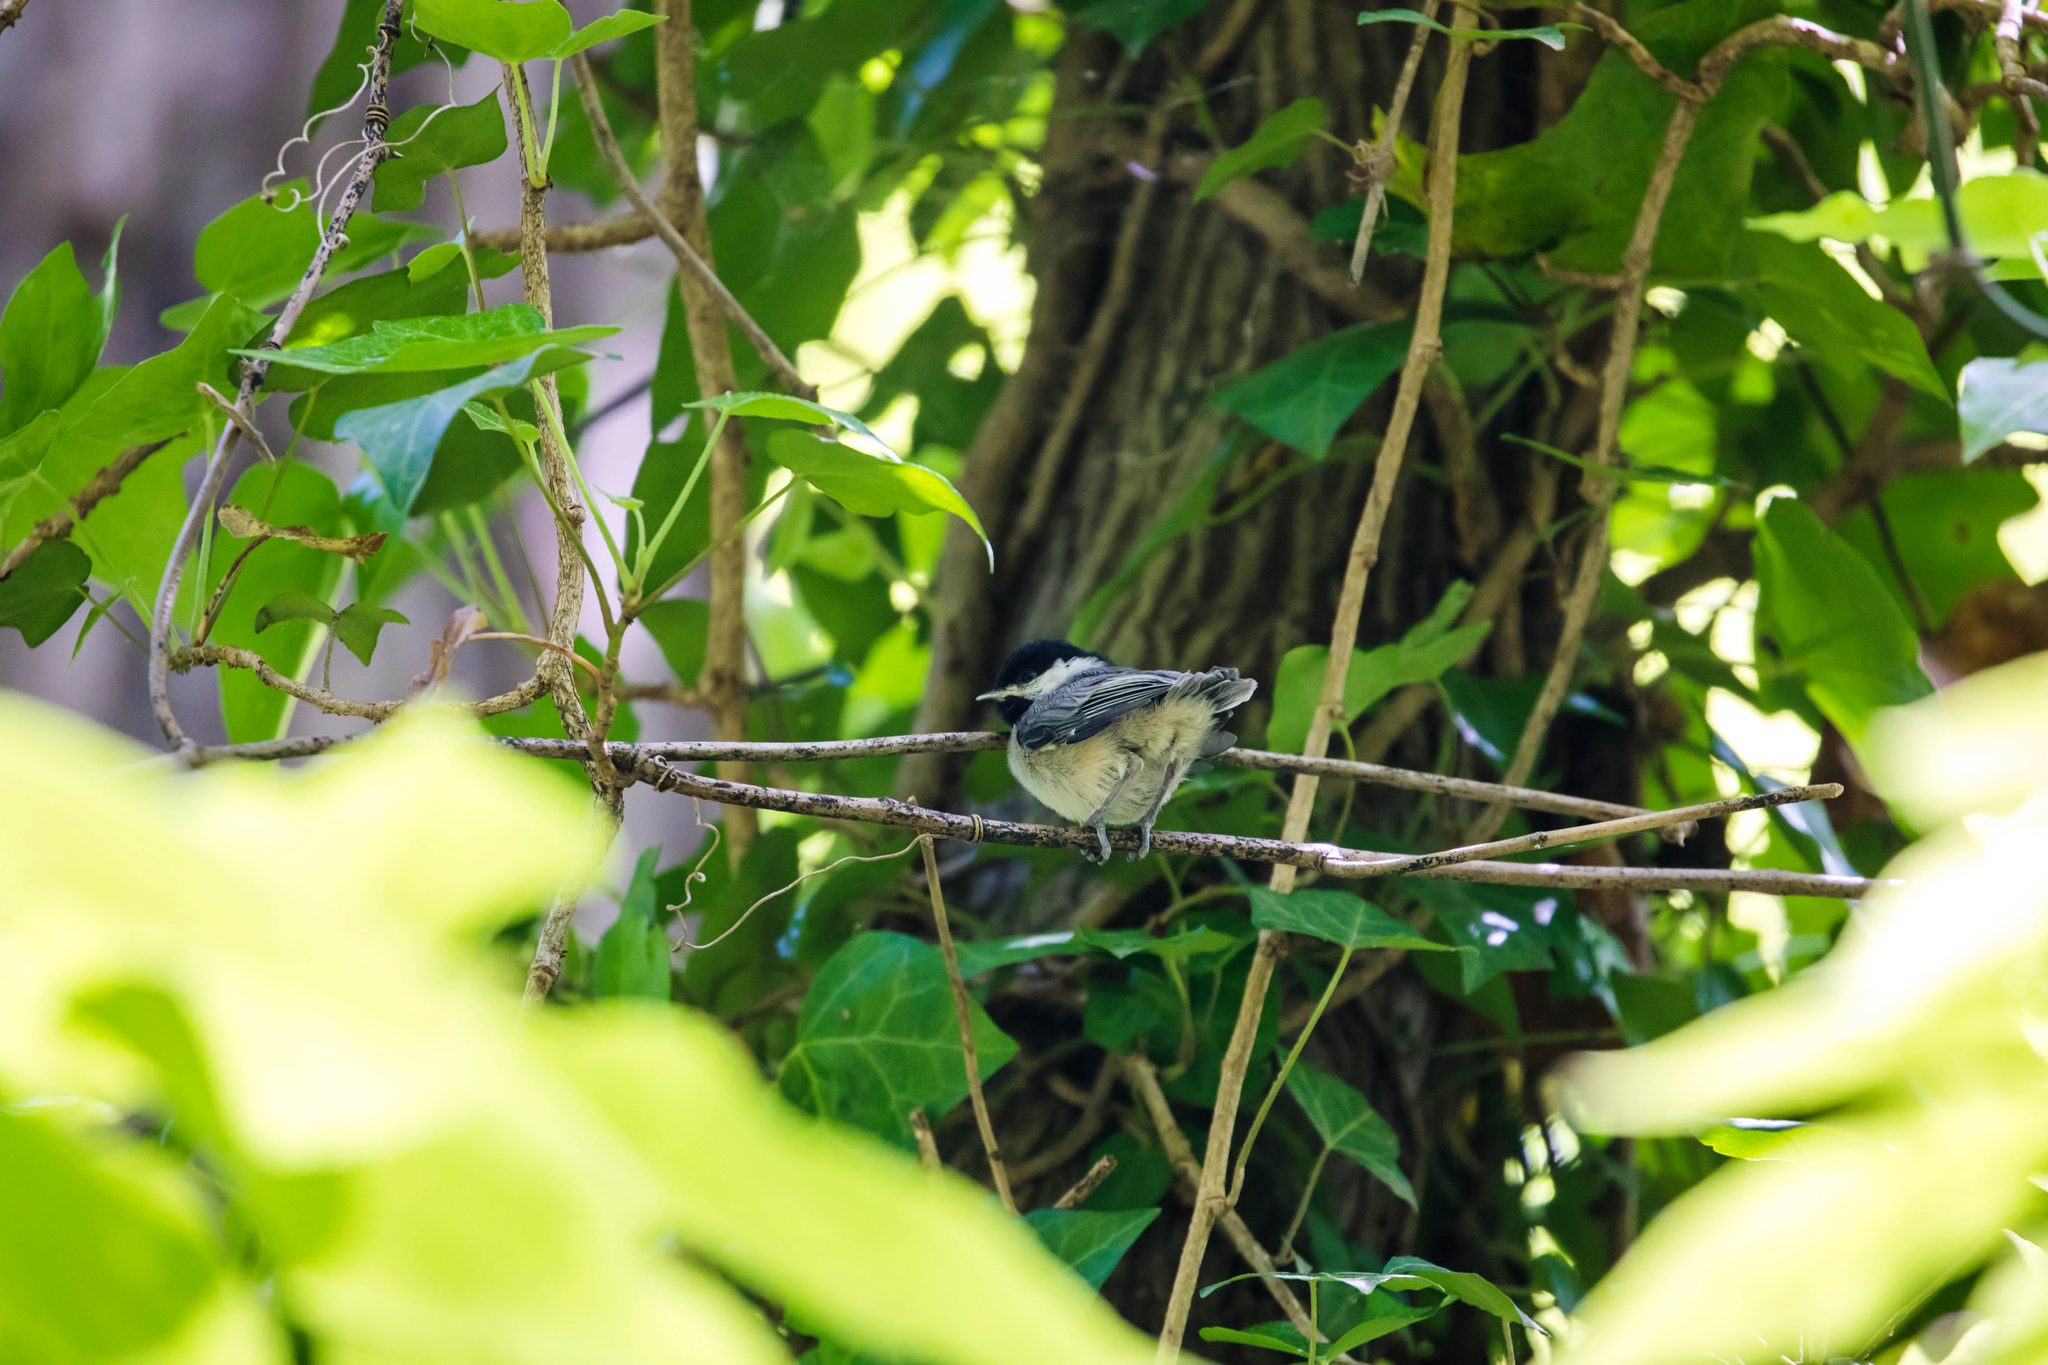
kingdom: Animalia
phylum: Chordata
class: Aves
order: Passeriformes
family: Paridae
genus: Poecile
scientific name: Poecile carolinensis
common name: Carolina chickadee
